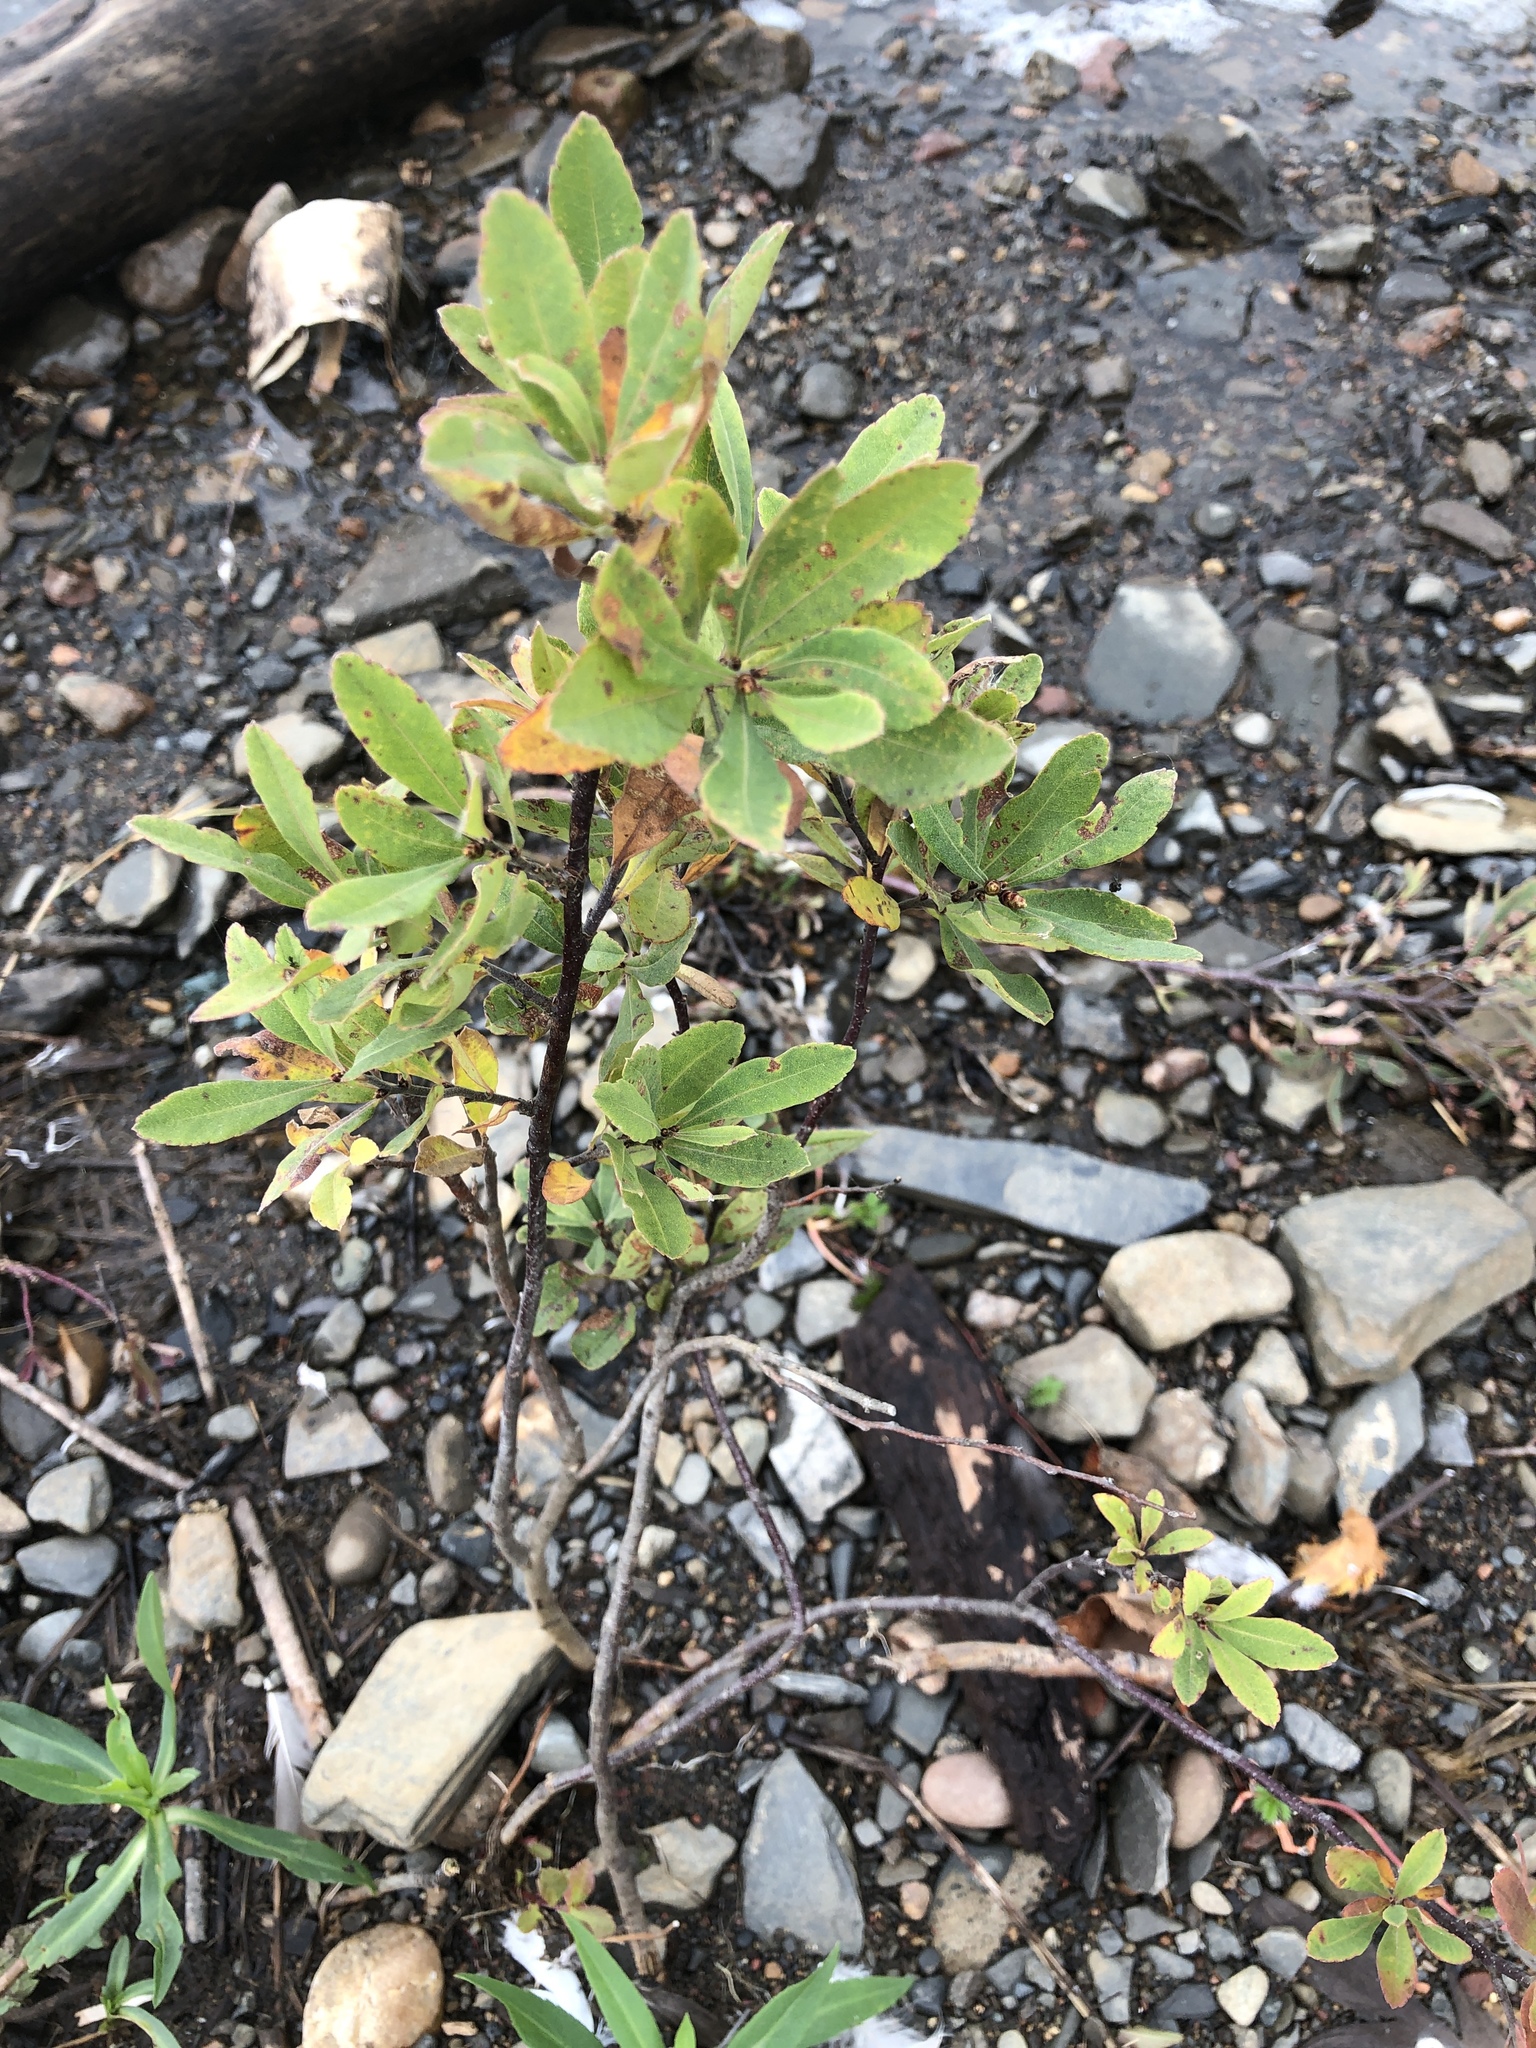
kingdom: Plantae
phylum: Tracheophyta
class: Magnoliopsida
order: Fagales
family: Myricaceae
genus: Myrica
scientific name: Myrica gale
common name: Sweet gale
